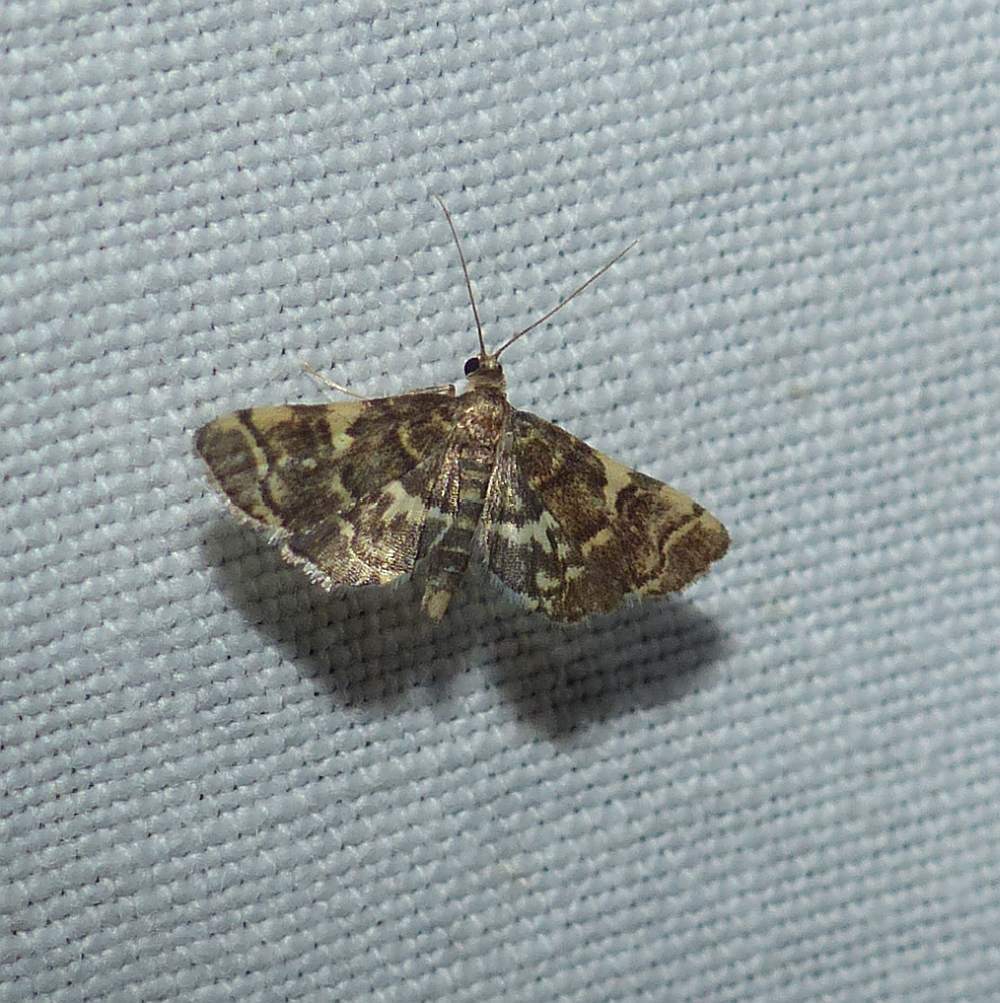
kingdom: Animalia
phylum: Arthropoda
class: Insecta
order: Lepidoptera
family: Crambidae
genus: Anageshna
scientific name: Anageshna primordialis
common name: Yellow-spotted webworm moth
